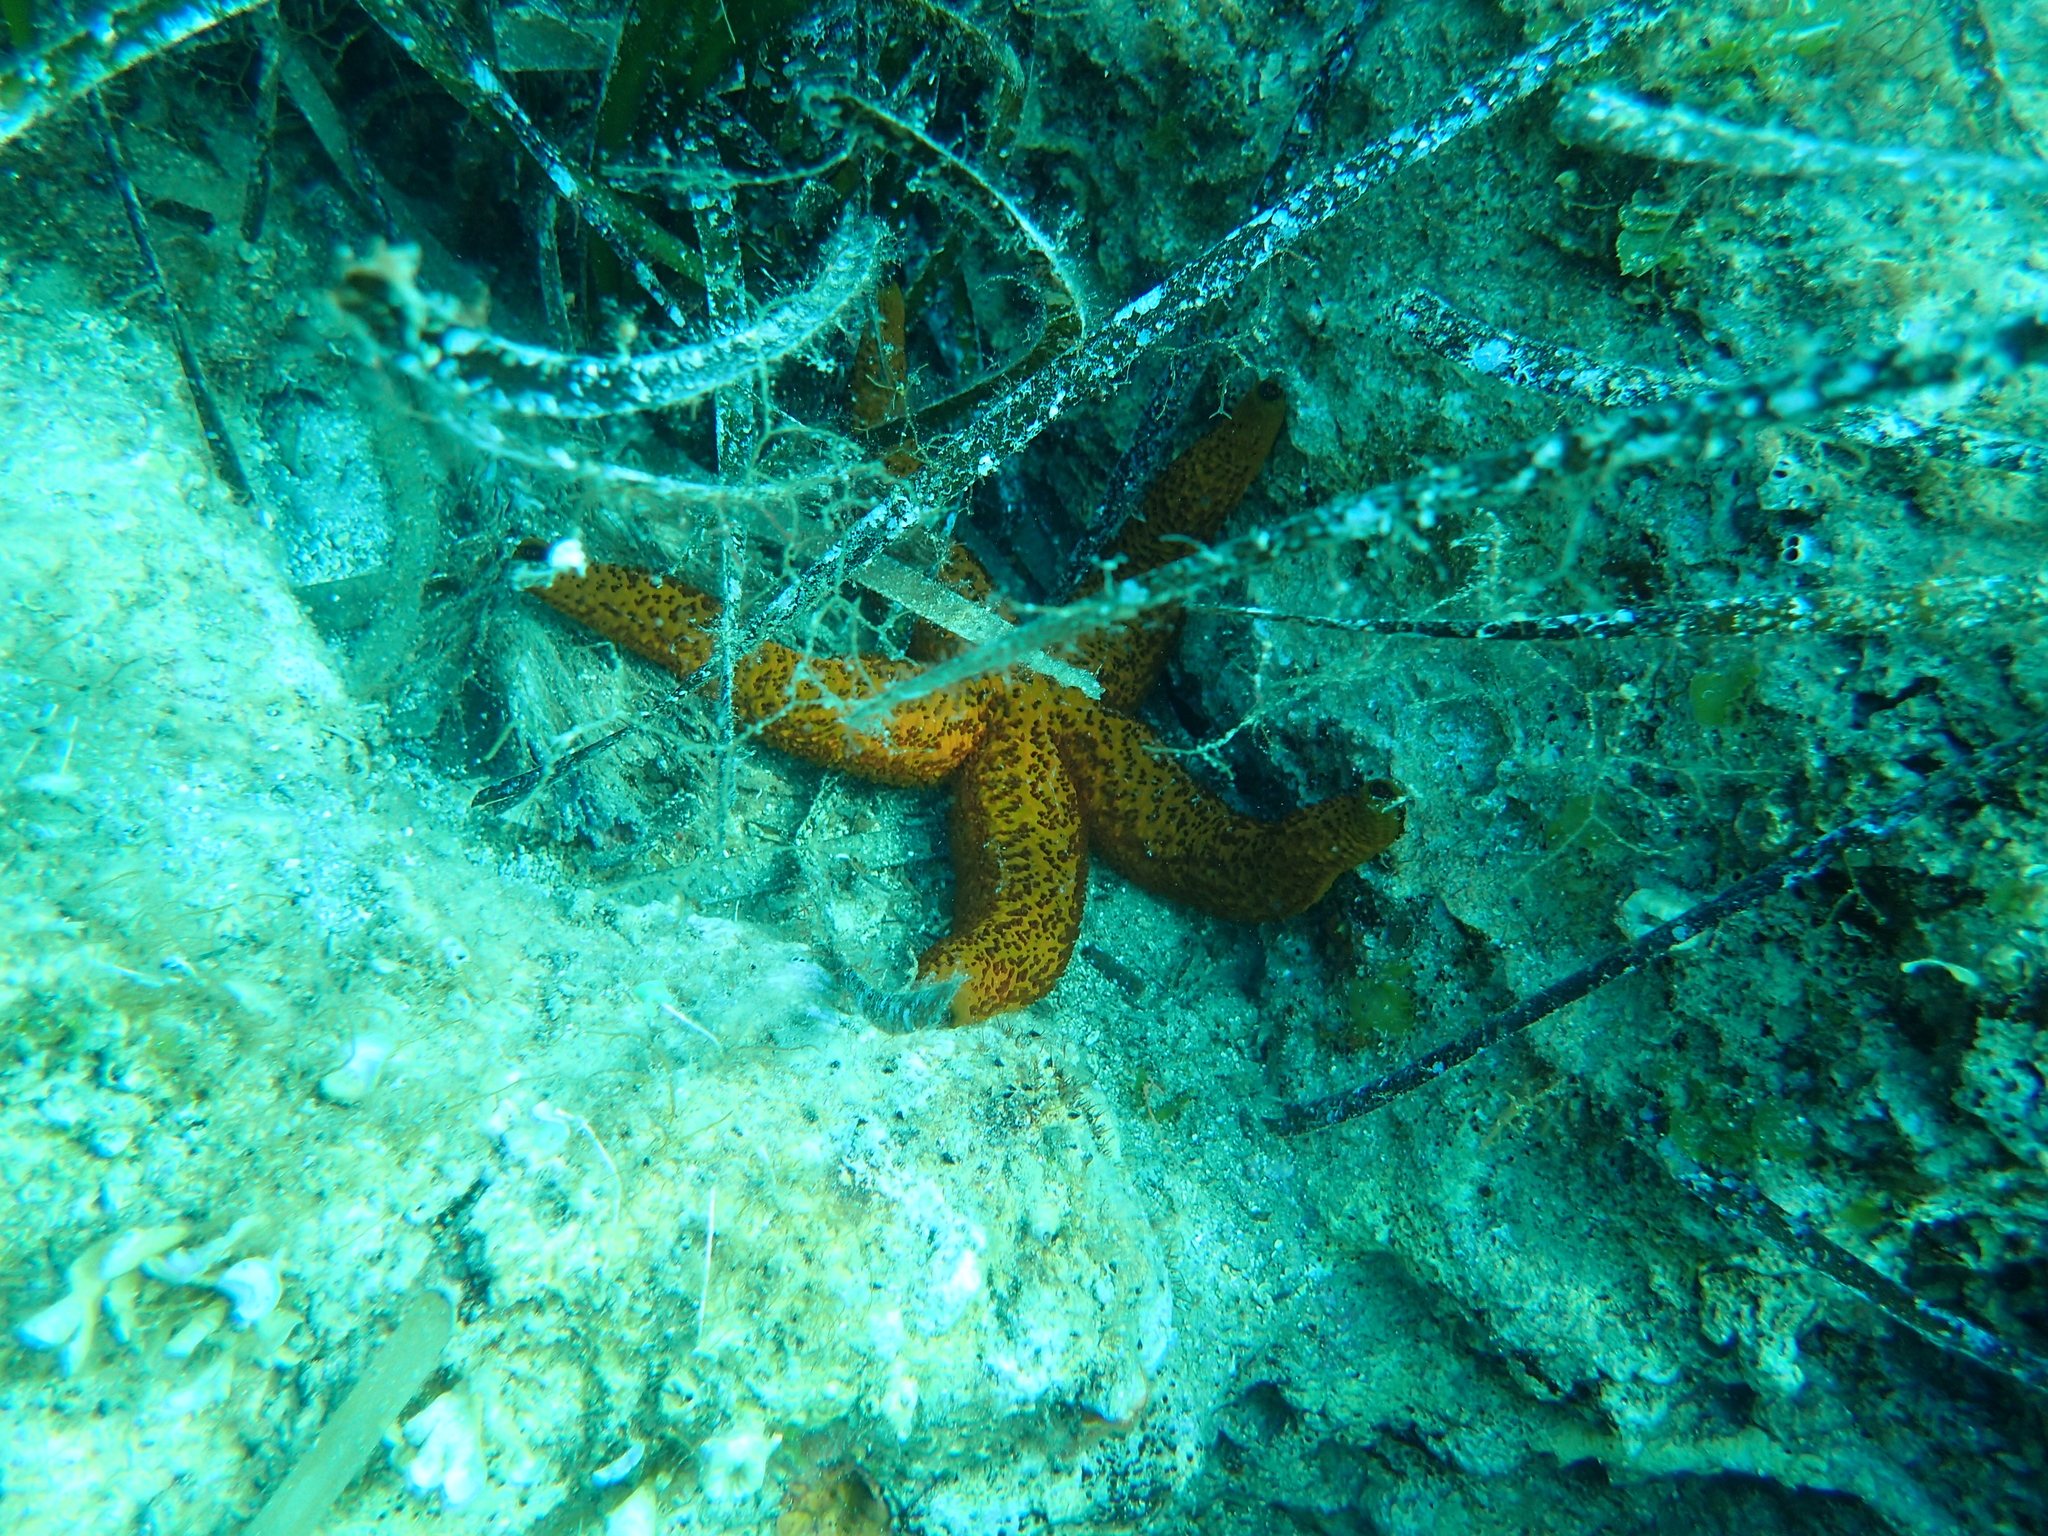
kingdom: Animalia
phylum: Echinodermata
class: Asteroidea
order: Spinulosida
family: Echinasteridae
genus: Echinaster
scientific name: Echinaster sepositus
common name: Red starfish
